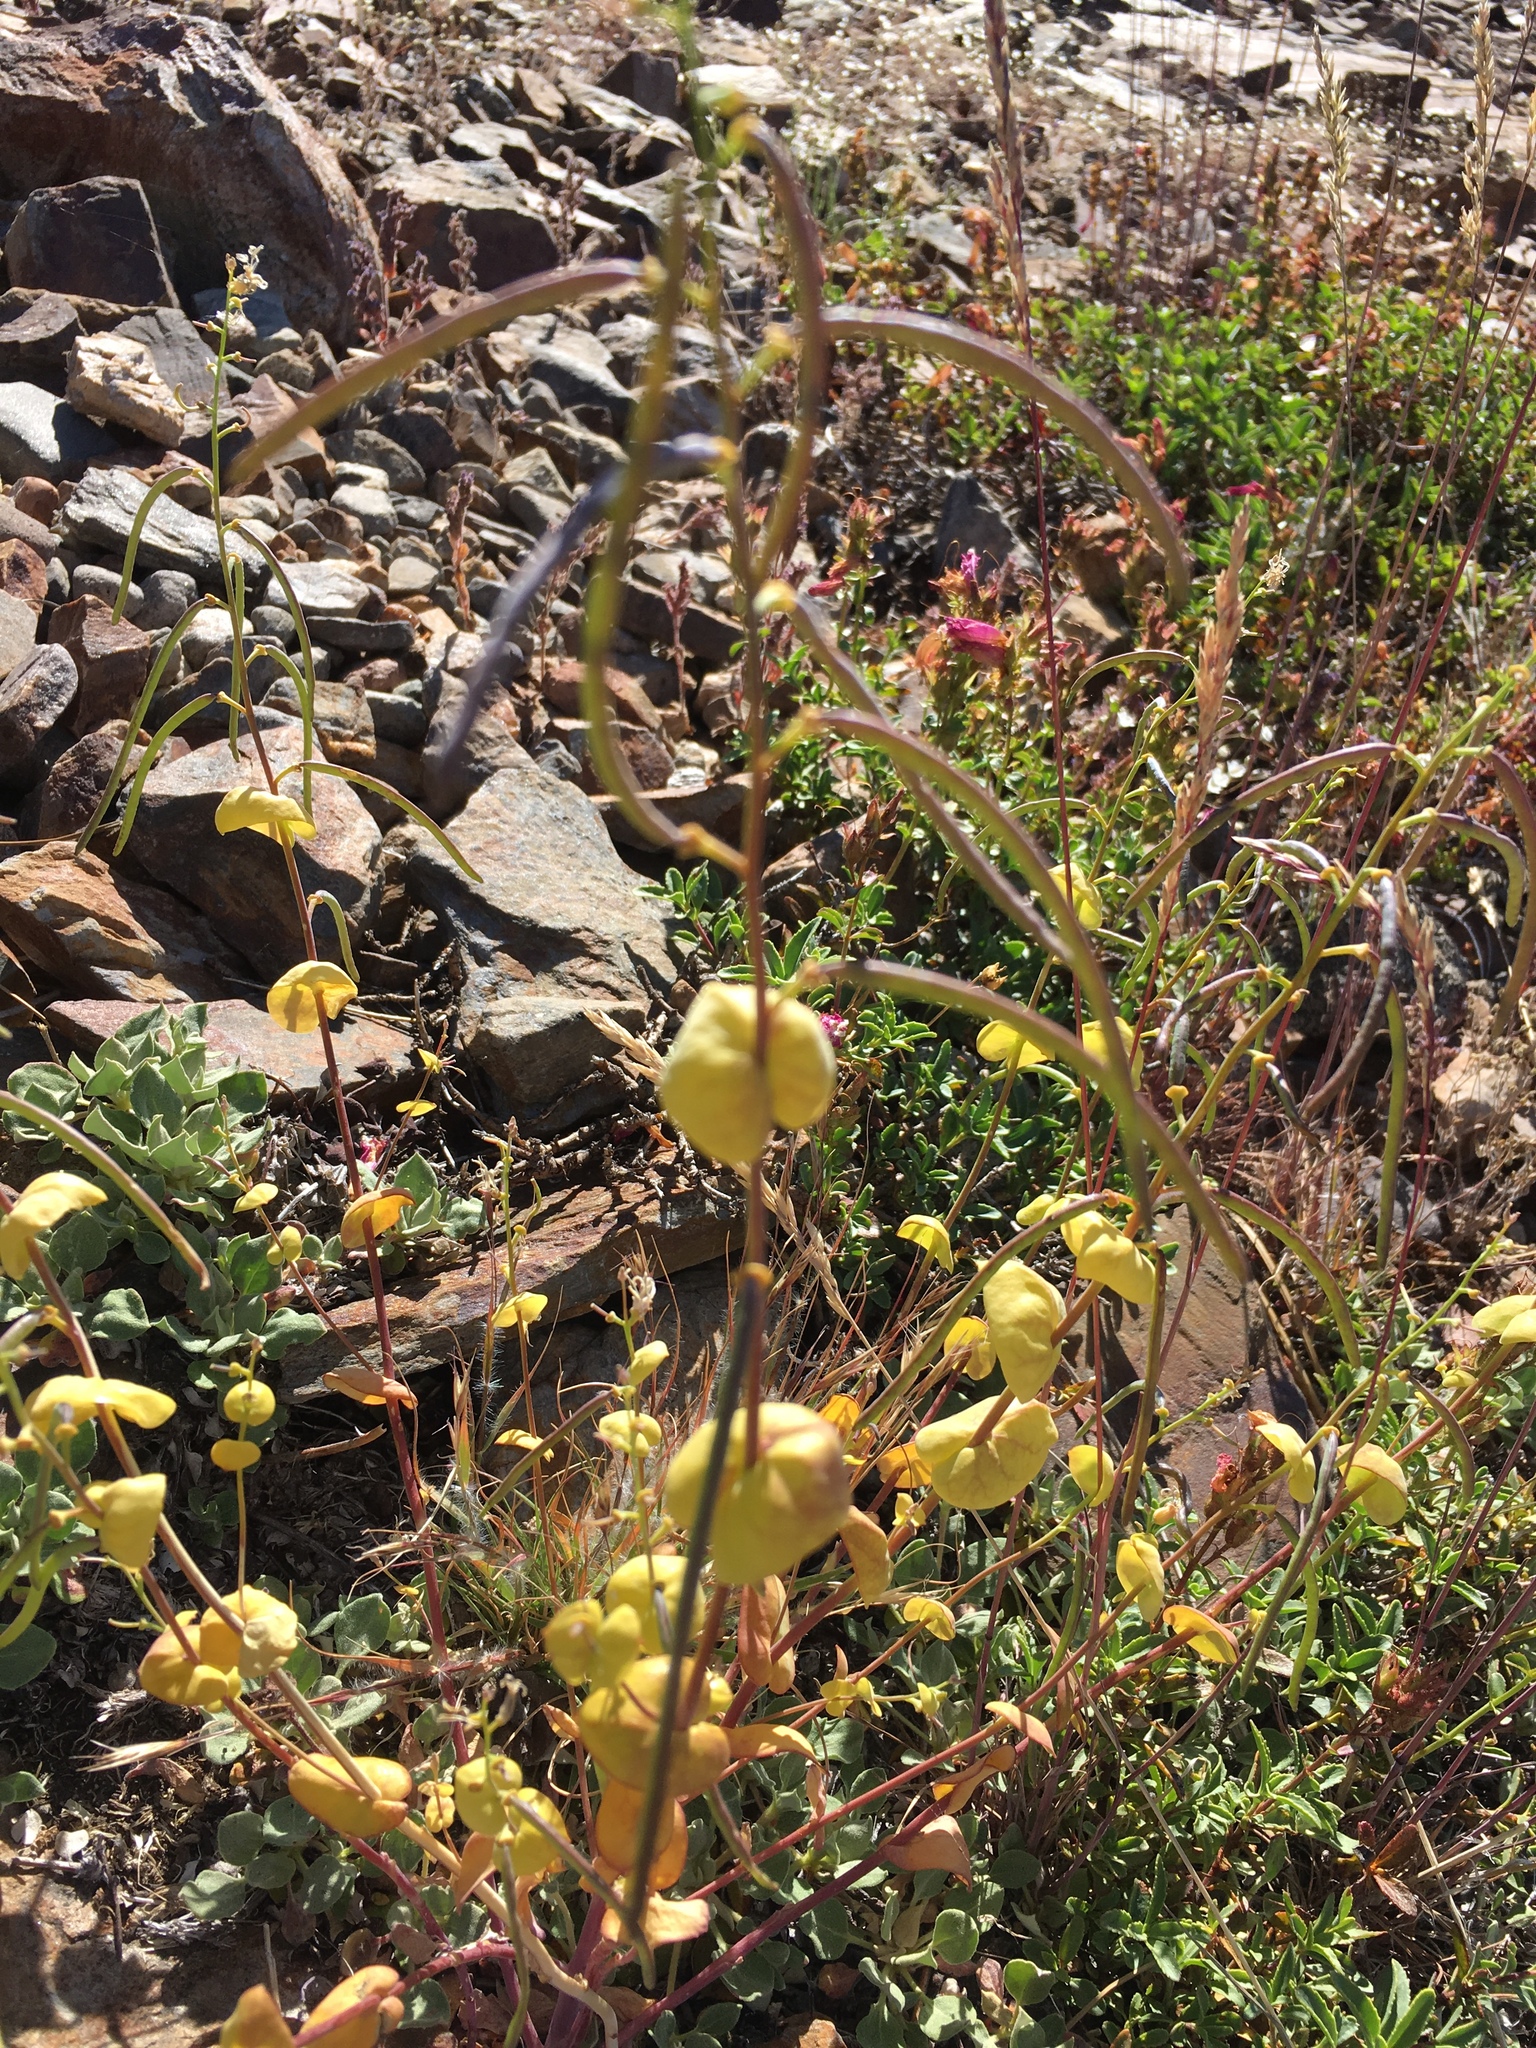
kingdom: Plantae
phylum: Tracheophyta
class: Magnoliopsida
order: Brassicales
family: Brassicaceae
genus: Streptanthus
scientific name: Streptanthus tortuosus
